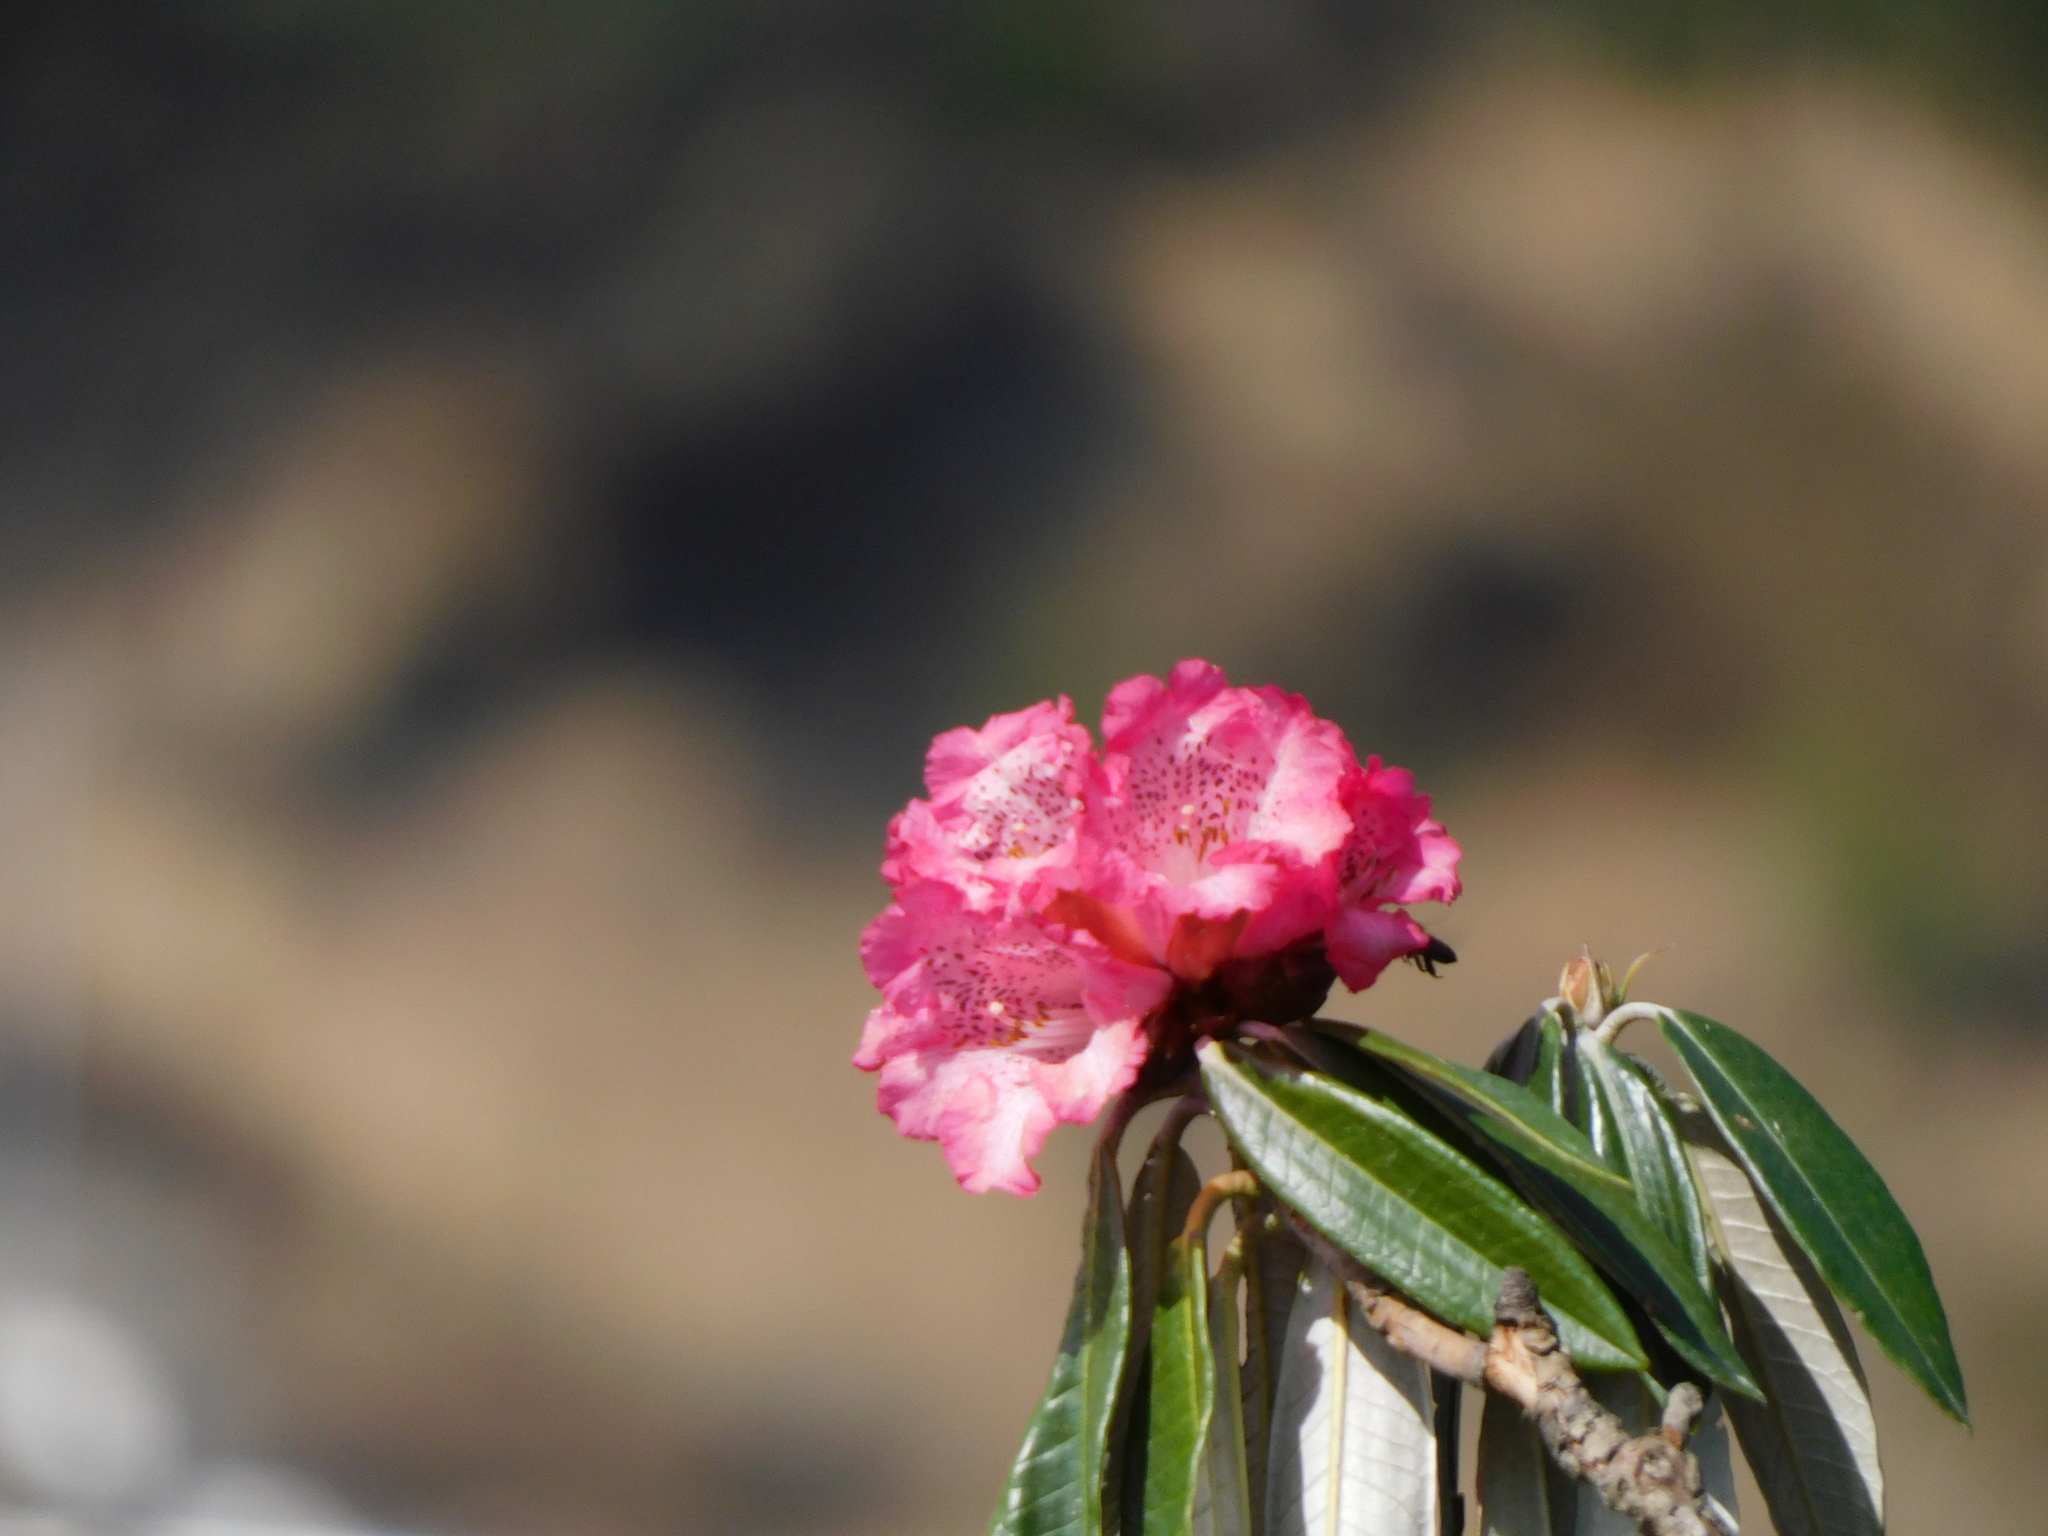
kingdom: Plantae
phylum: Tracheophyta
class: Magnoliopsida
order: Ericales
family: Ericaceae
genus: Rhododendron
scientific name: Rhododendron arboreum
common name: Tree rhododendron
